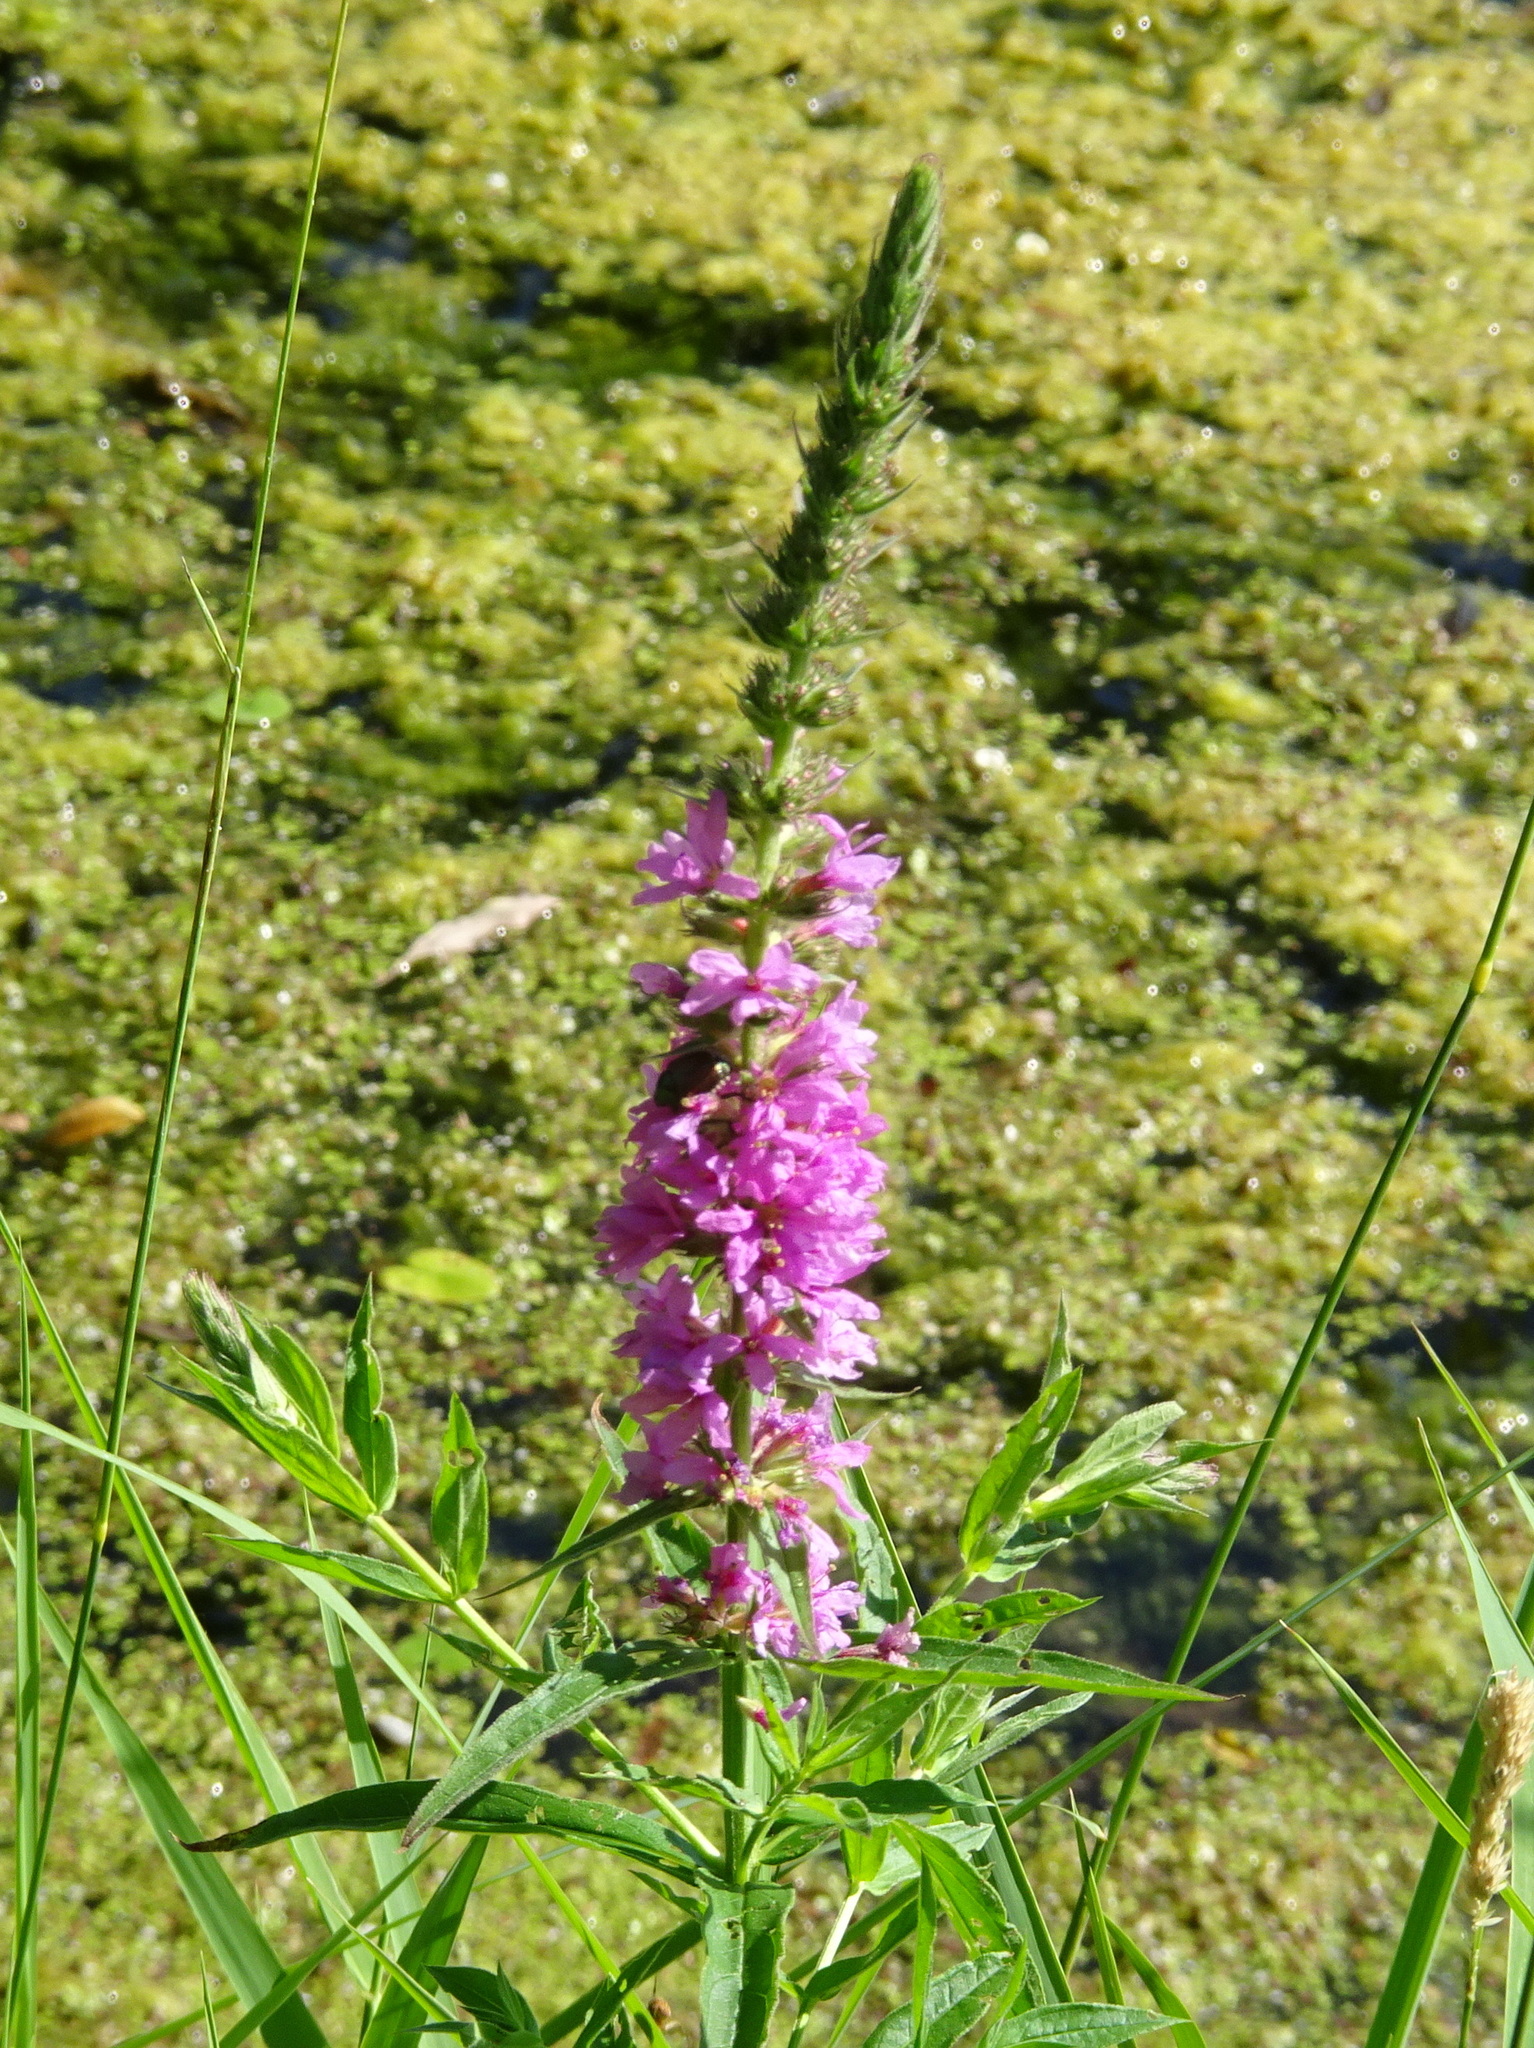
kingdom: Plantae
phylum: Tracheophyta
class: Magnoliopsida
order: Myrtales
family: Lythraceae
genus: Lythrum
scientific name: Lythrum salicaria
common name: Purple loosestrife
